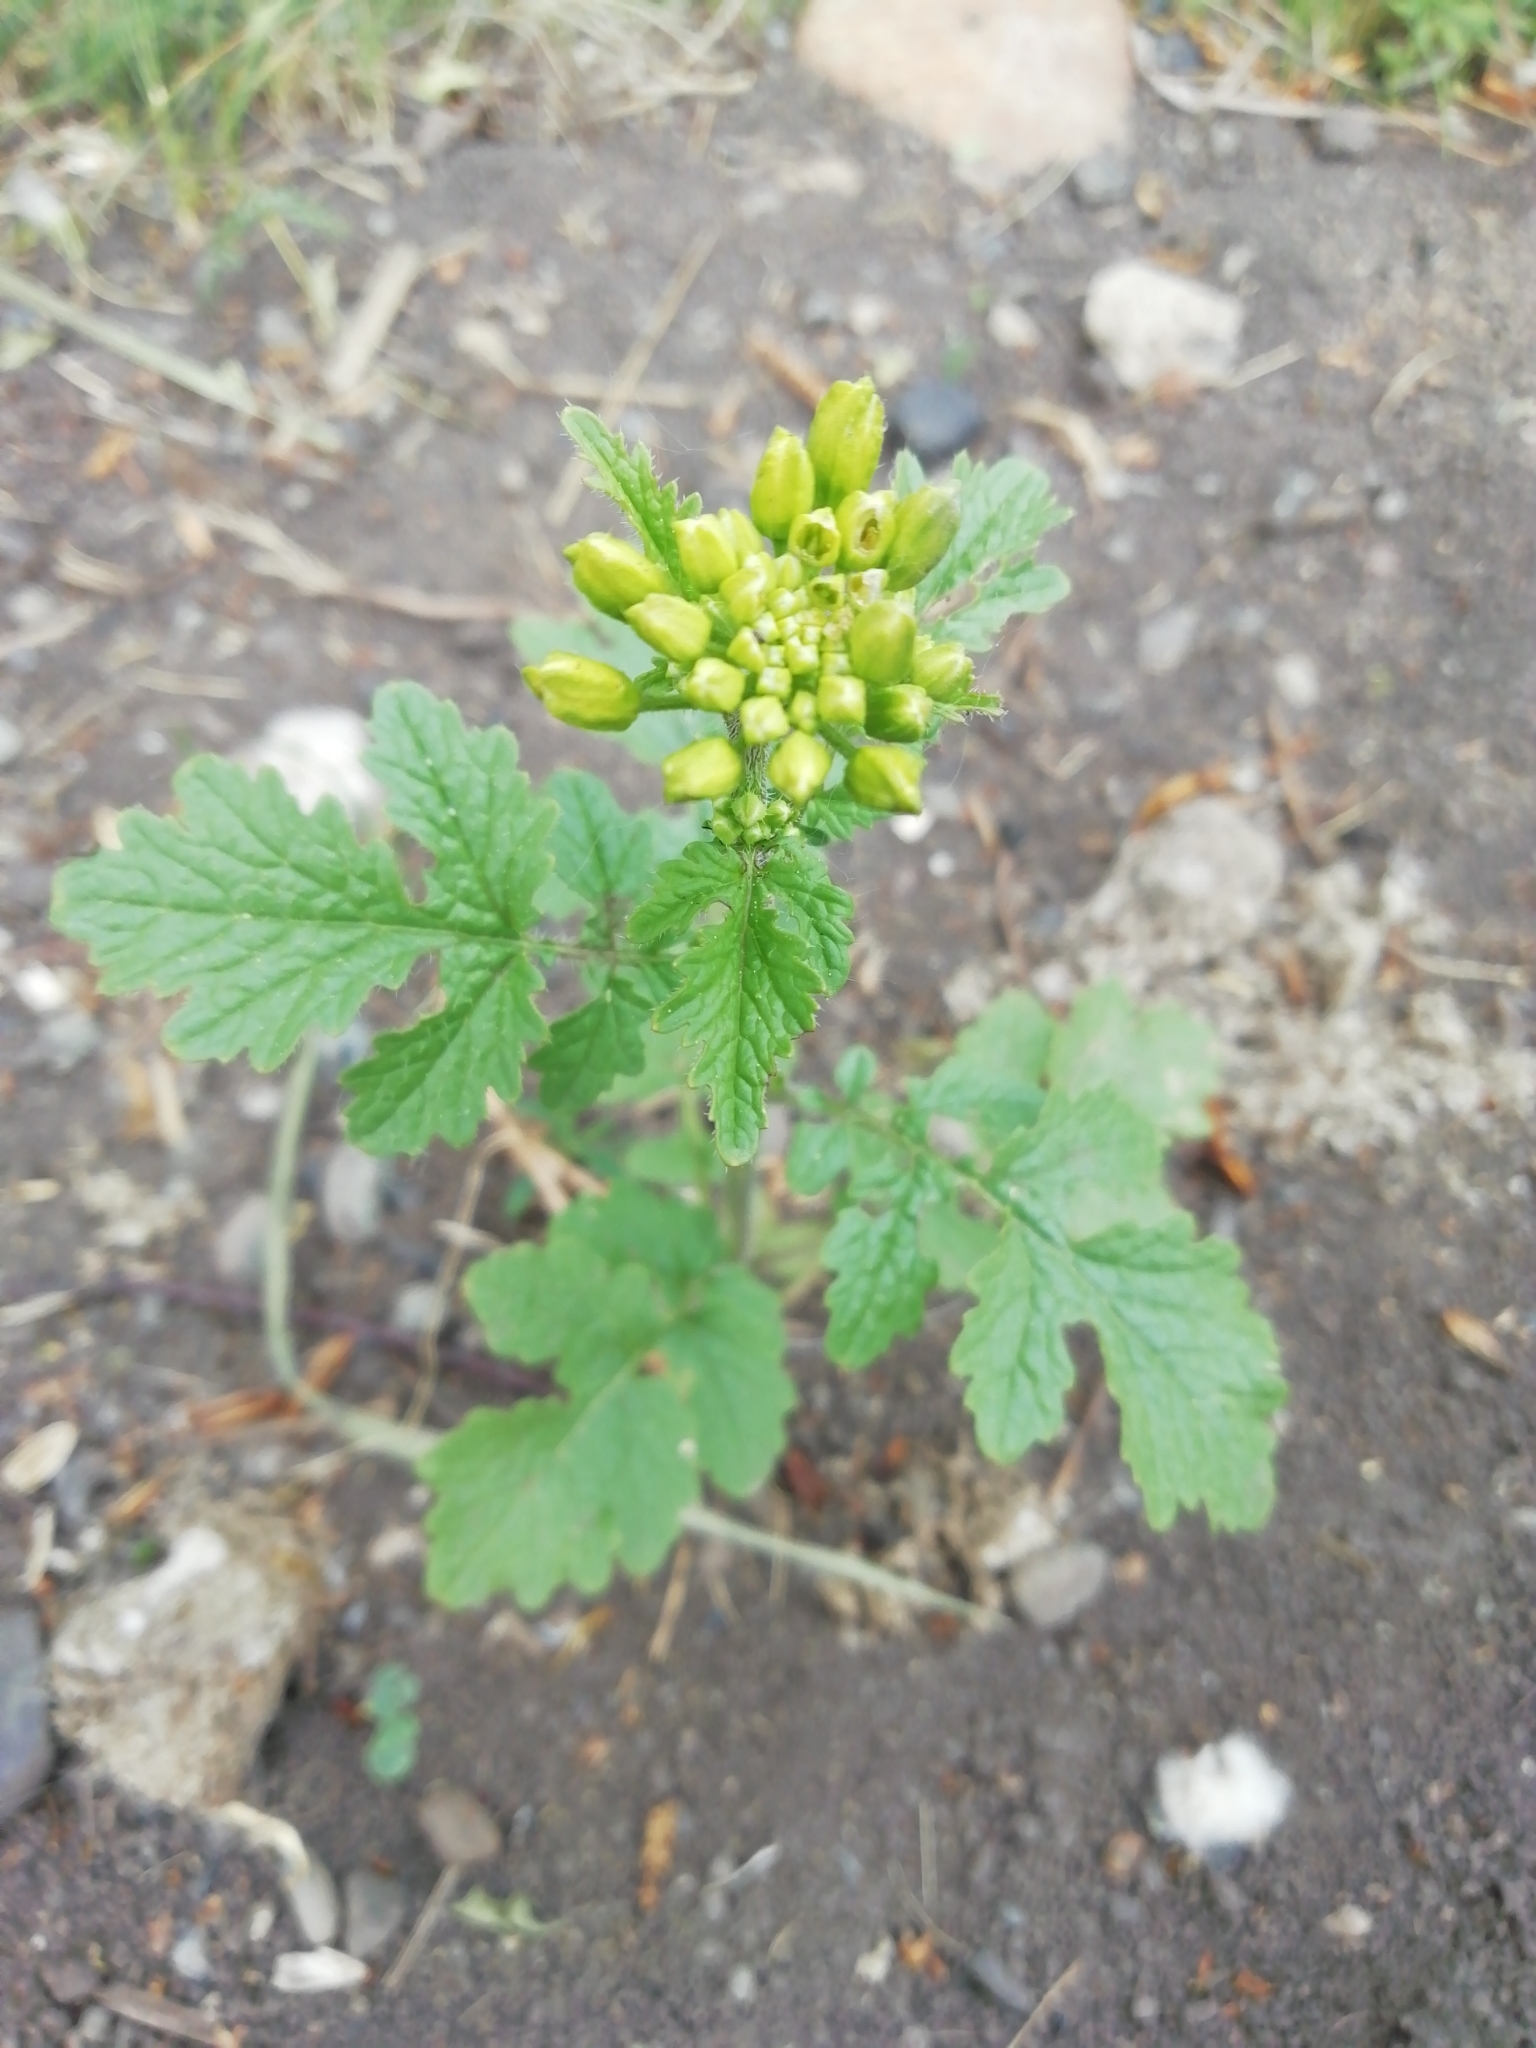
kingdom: Plantae
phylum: Tracheophyta
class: Magnoliopsida
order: Brassicales
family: Brassicaceae
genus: Sinapis
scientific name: Sinapis alba
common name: White mustard
